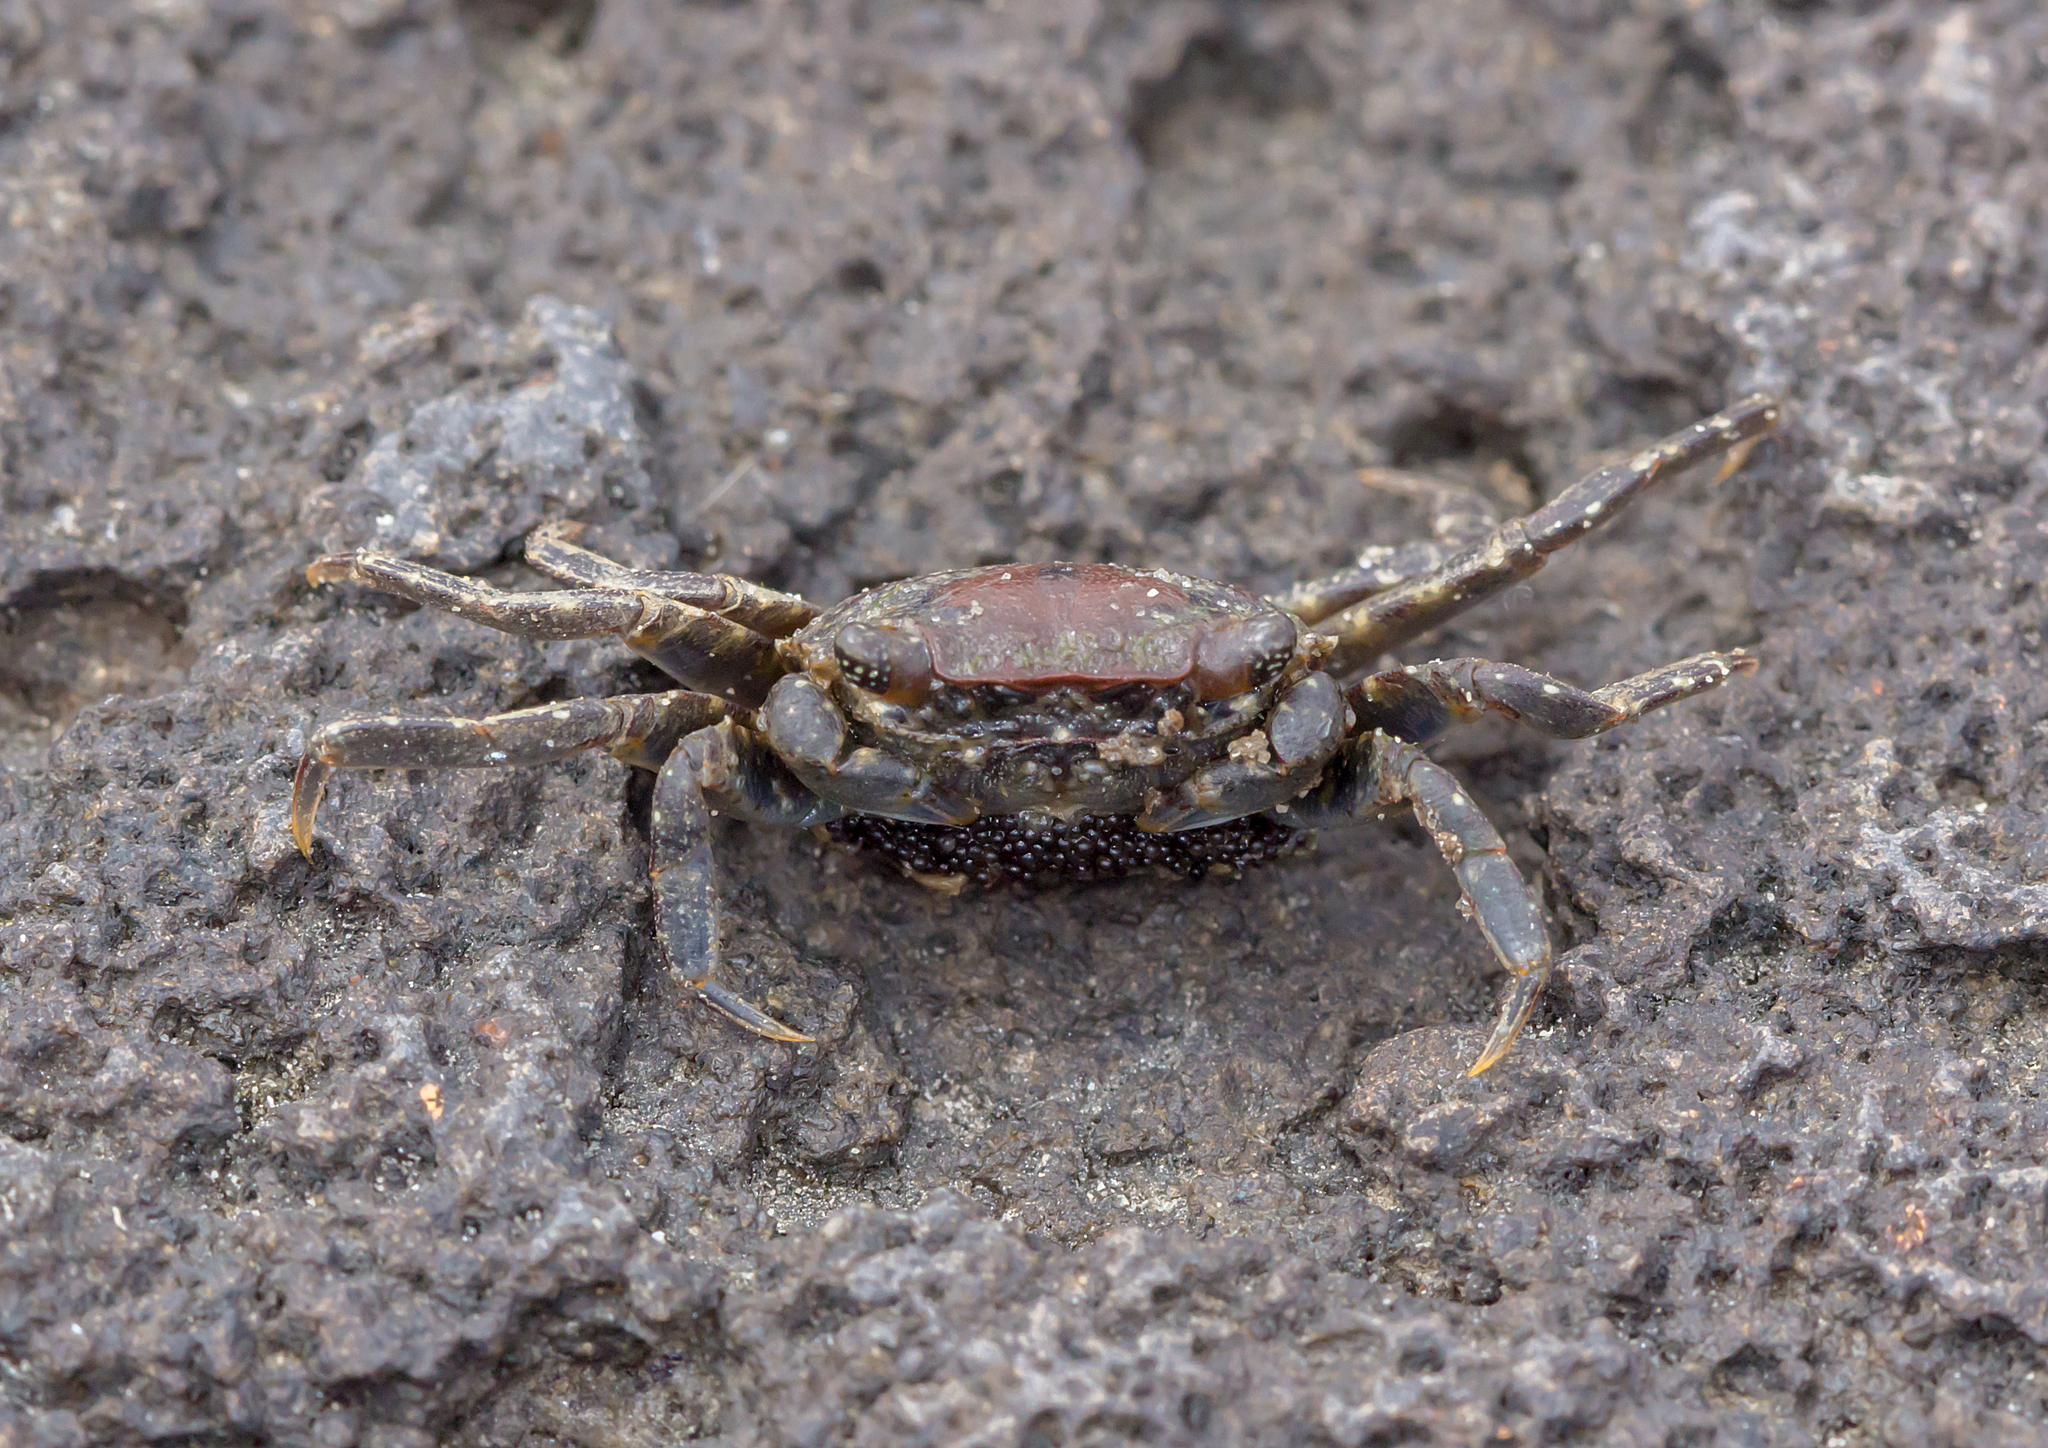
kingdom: Animalia
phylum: Arthropoda
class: Malacostraca
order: Decapoda
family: Varunidae
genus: Brachynotus
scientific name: Brachynotus spinosus
